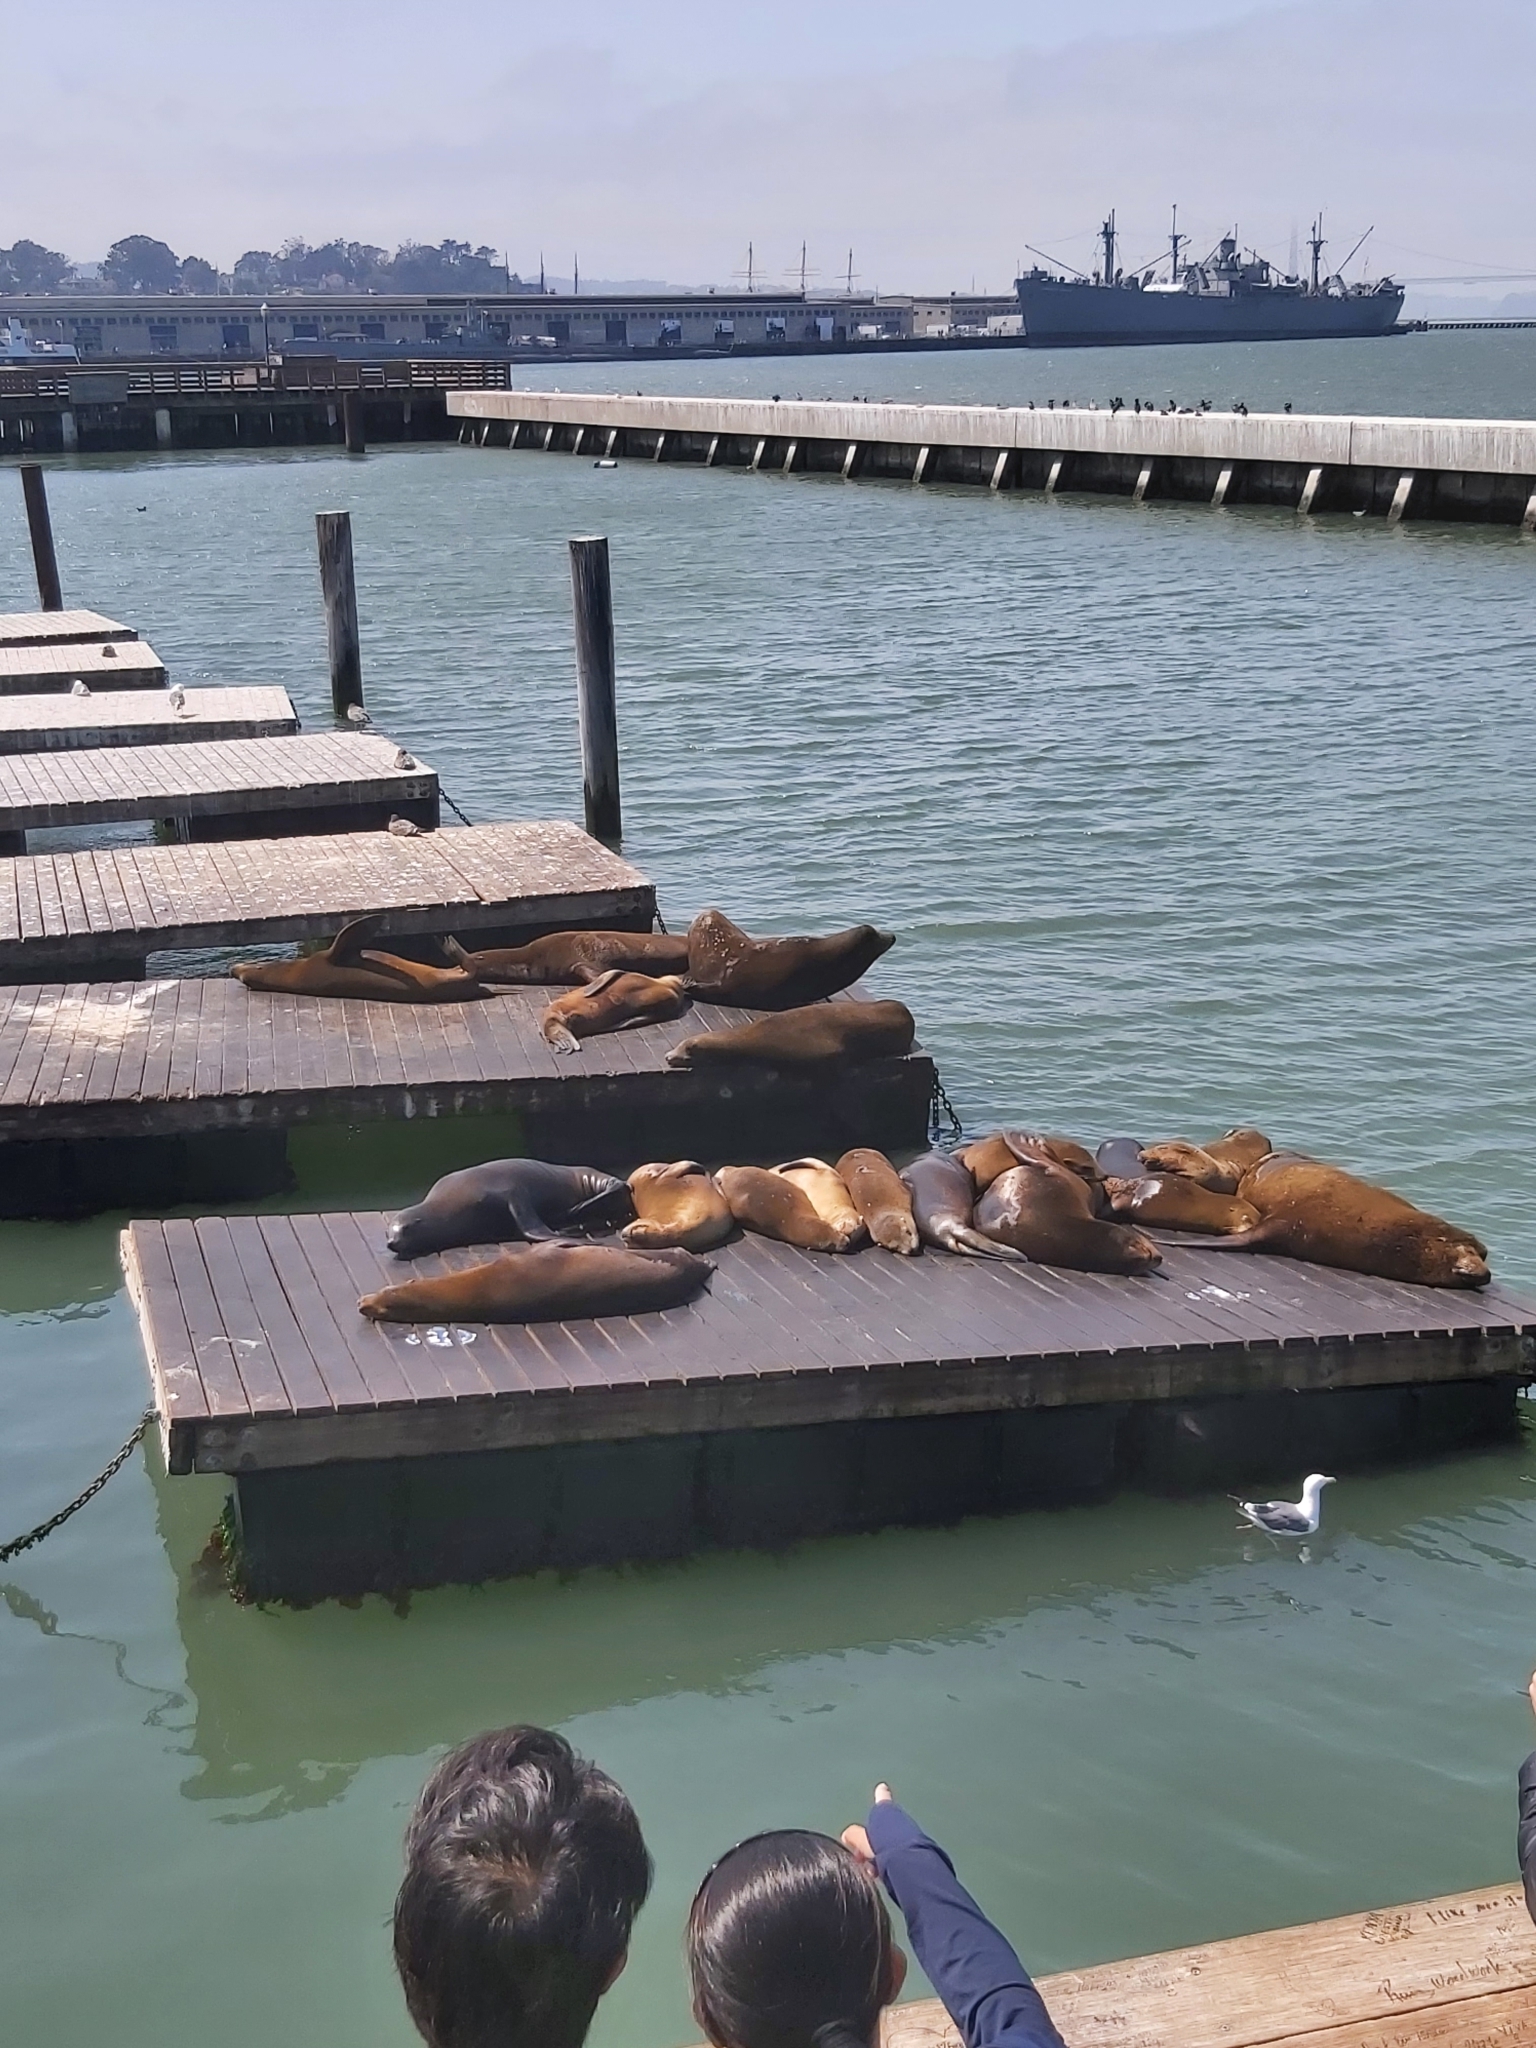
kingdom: Animalia
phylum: Chordata
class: Mammalia
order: Carnivora
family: Otariidae
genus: Zalophus
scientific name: Zalophus californianus
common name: California sea lion
